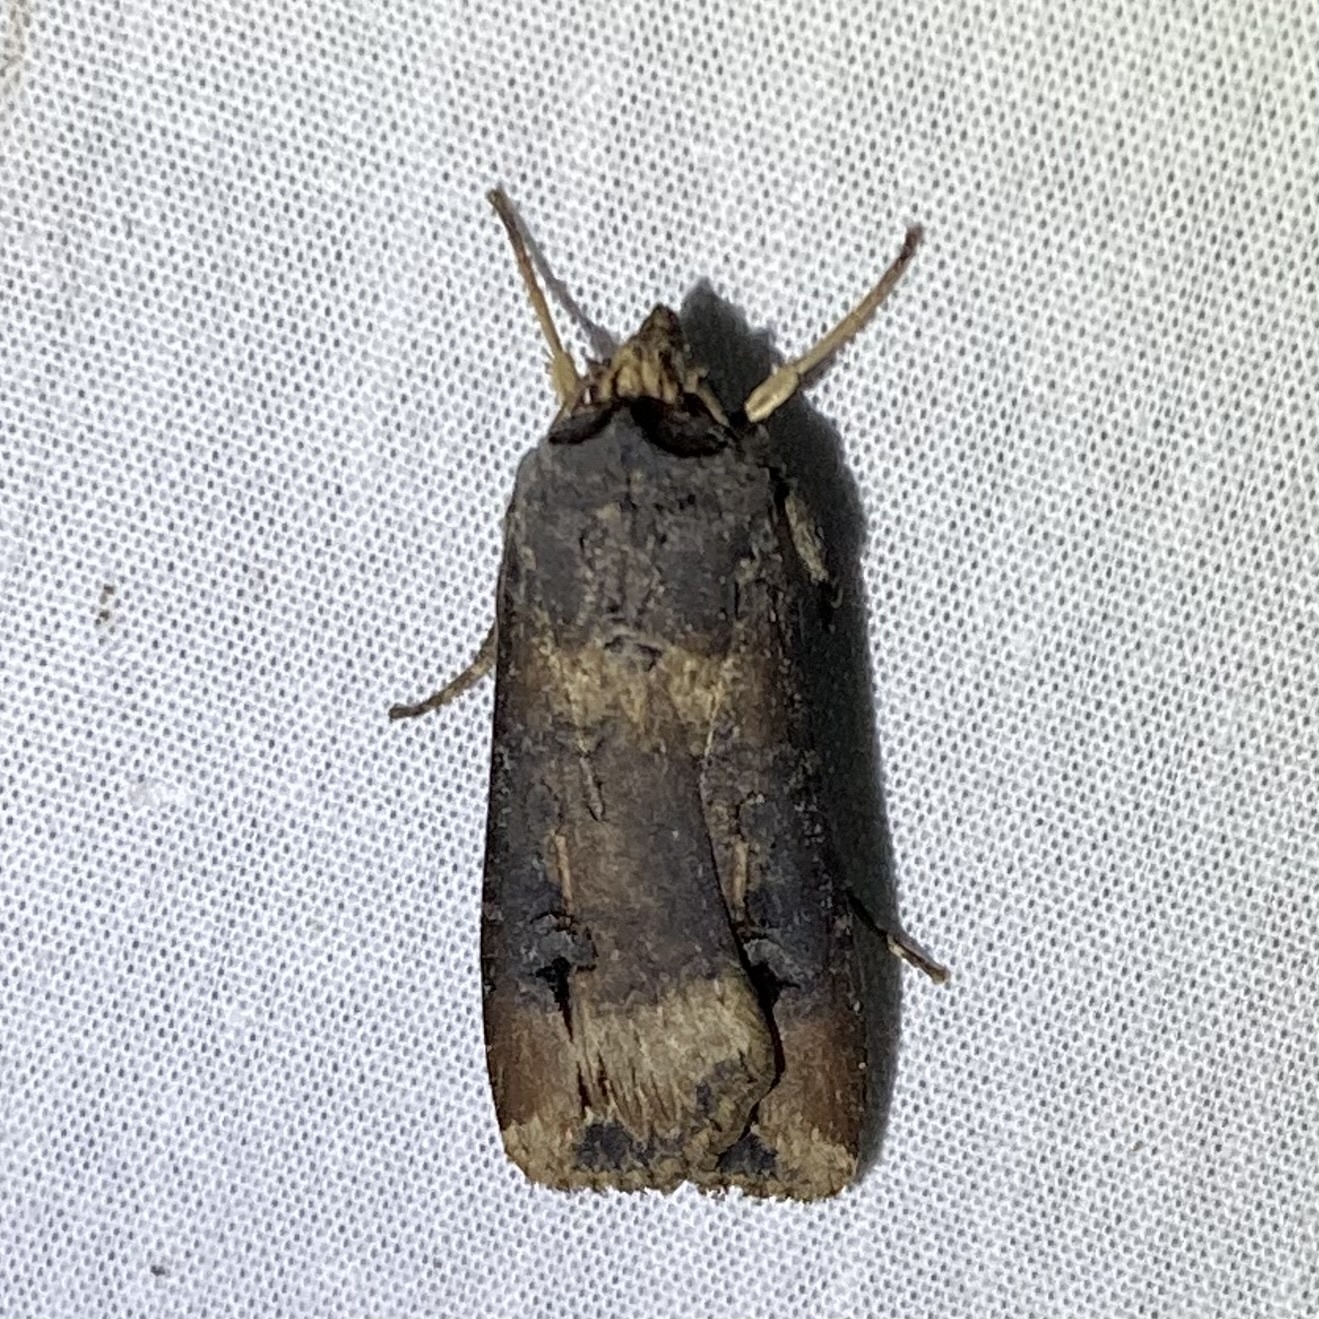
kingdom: Animalia
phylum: Arthropoda
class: Insecta
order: Lepidoptera
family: Noctuidae
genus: Agrotis
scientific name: Agrotis ipsilon
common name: Dark sword-grass
